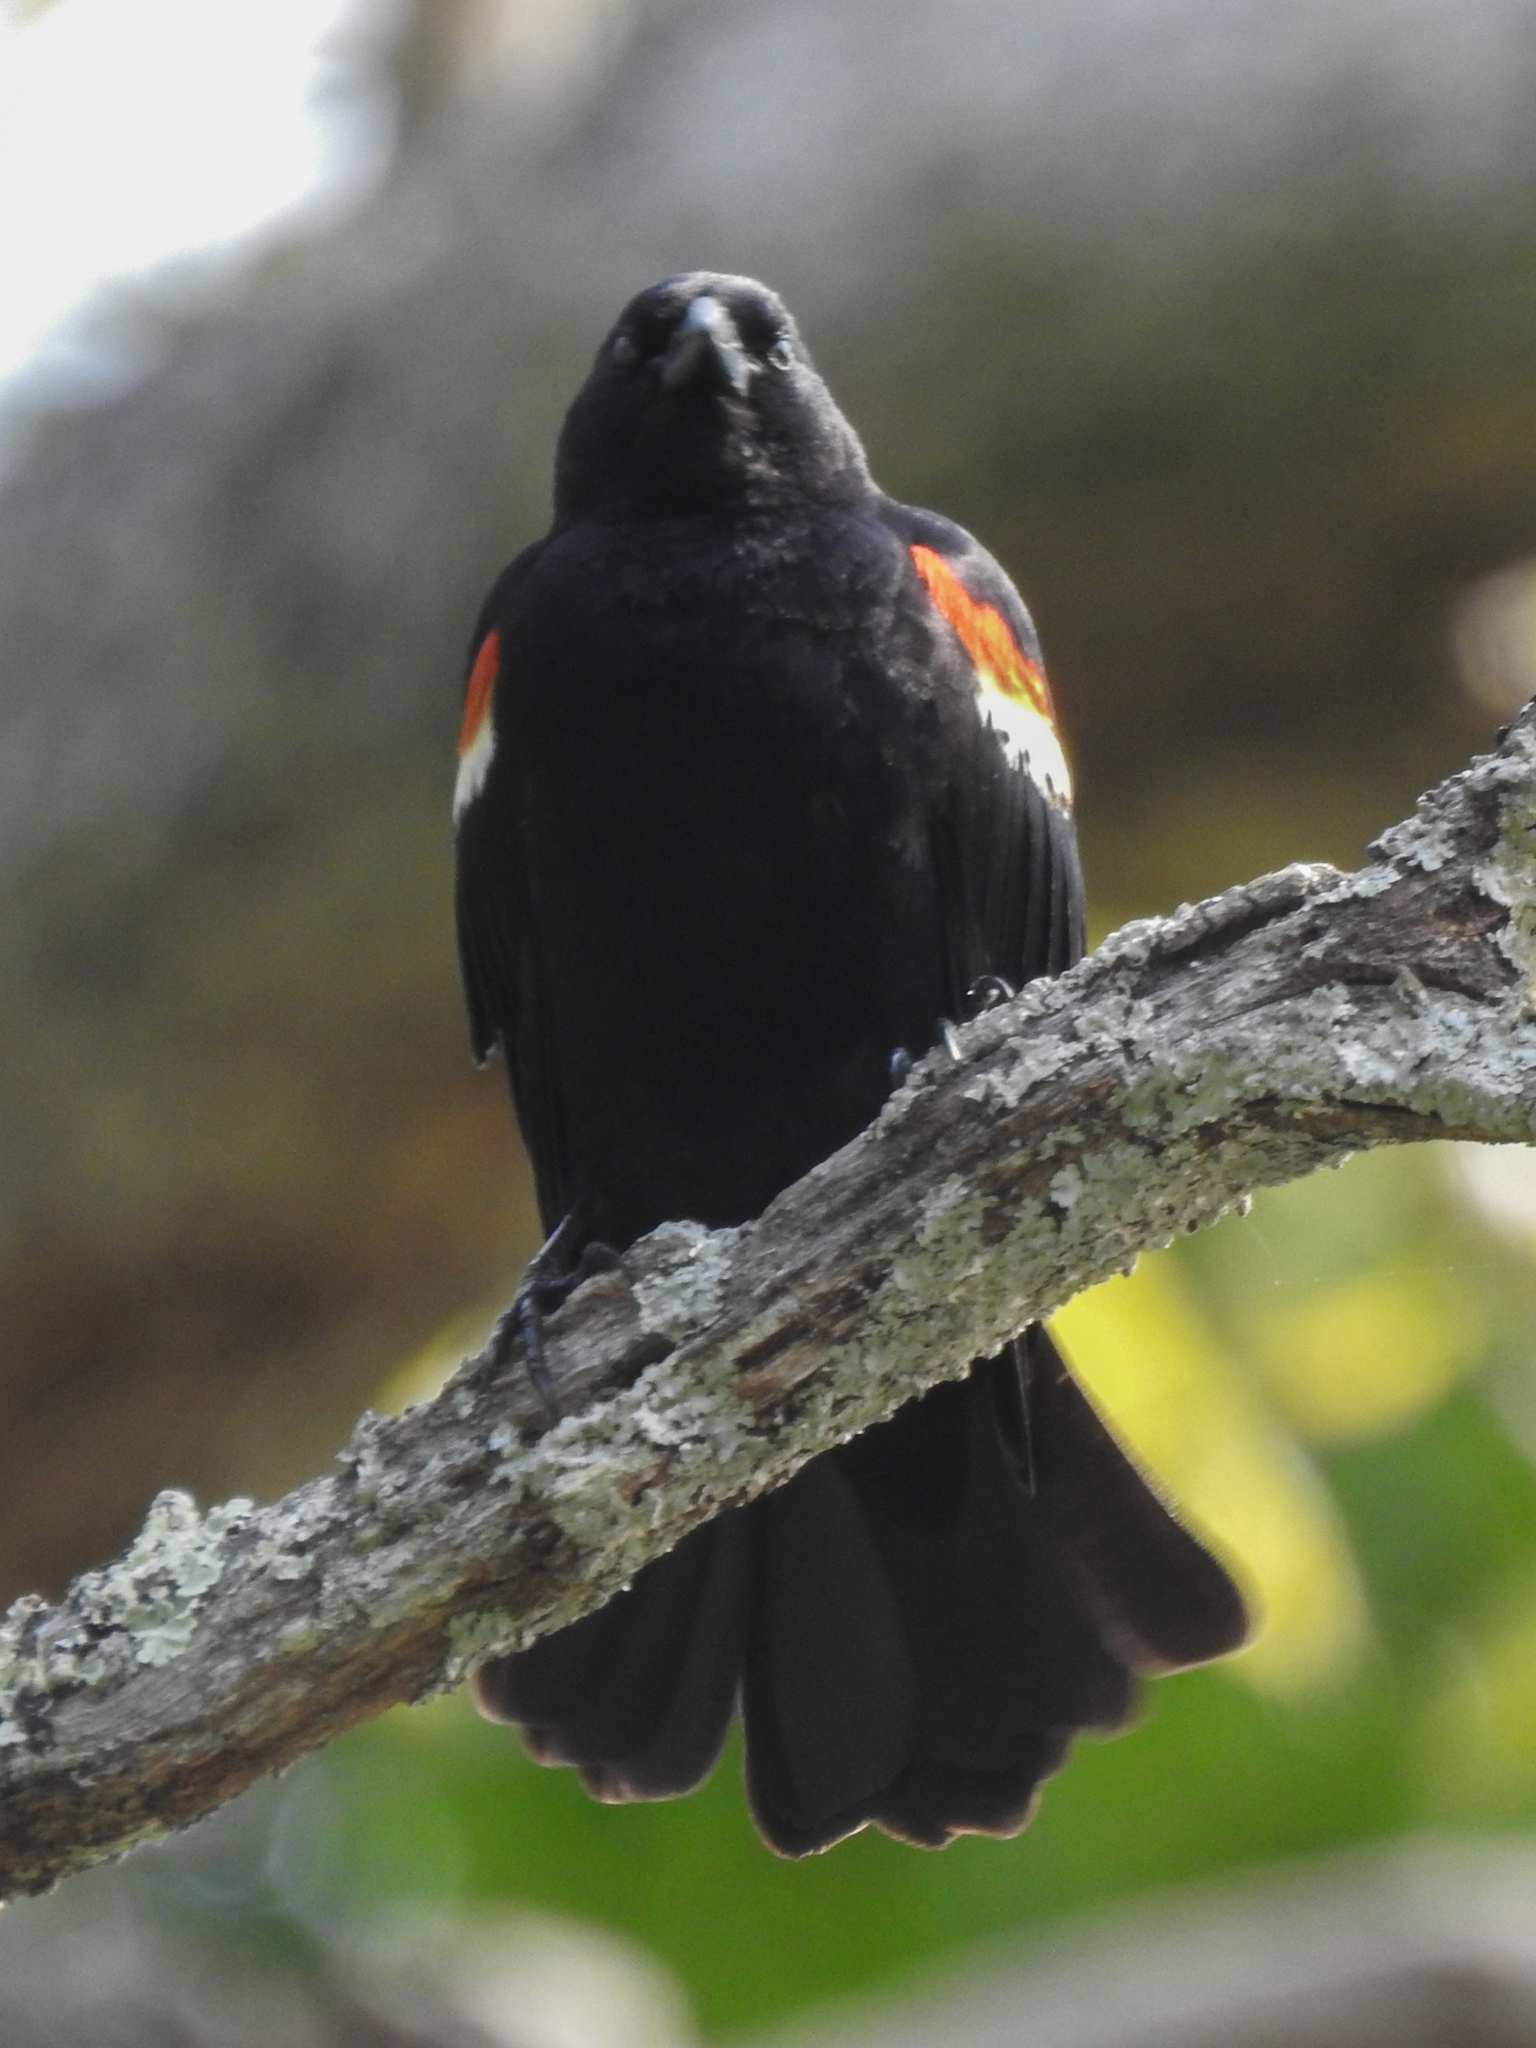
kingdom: Animalia
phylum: Chordata
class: Aves
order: Passeriformes
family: Icteridae
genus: Agelaius
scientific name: Agelaius phoeniceus
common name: Red-winged blackbird
